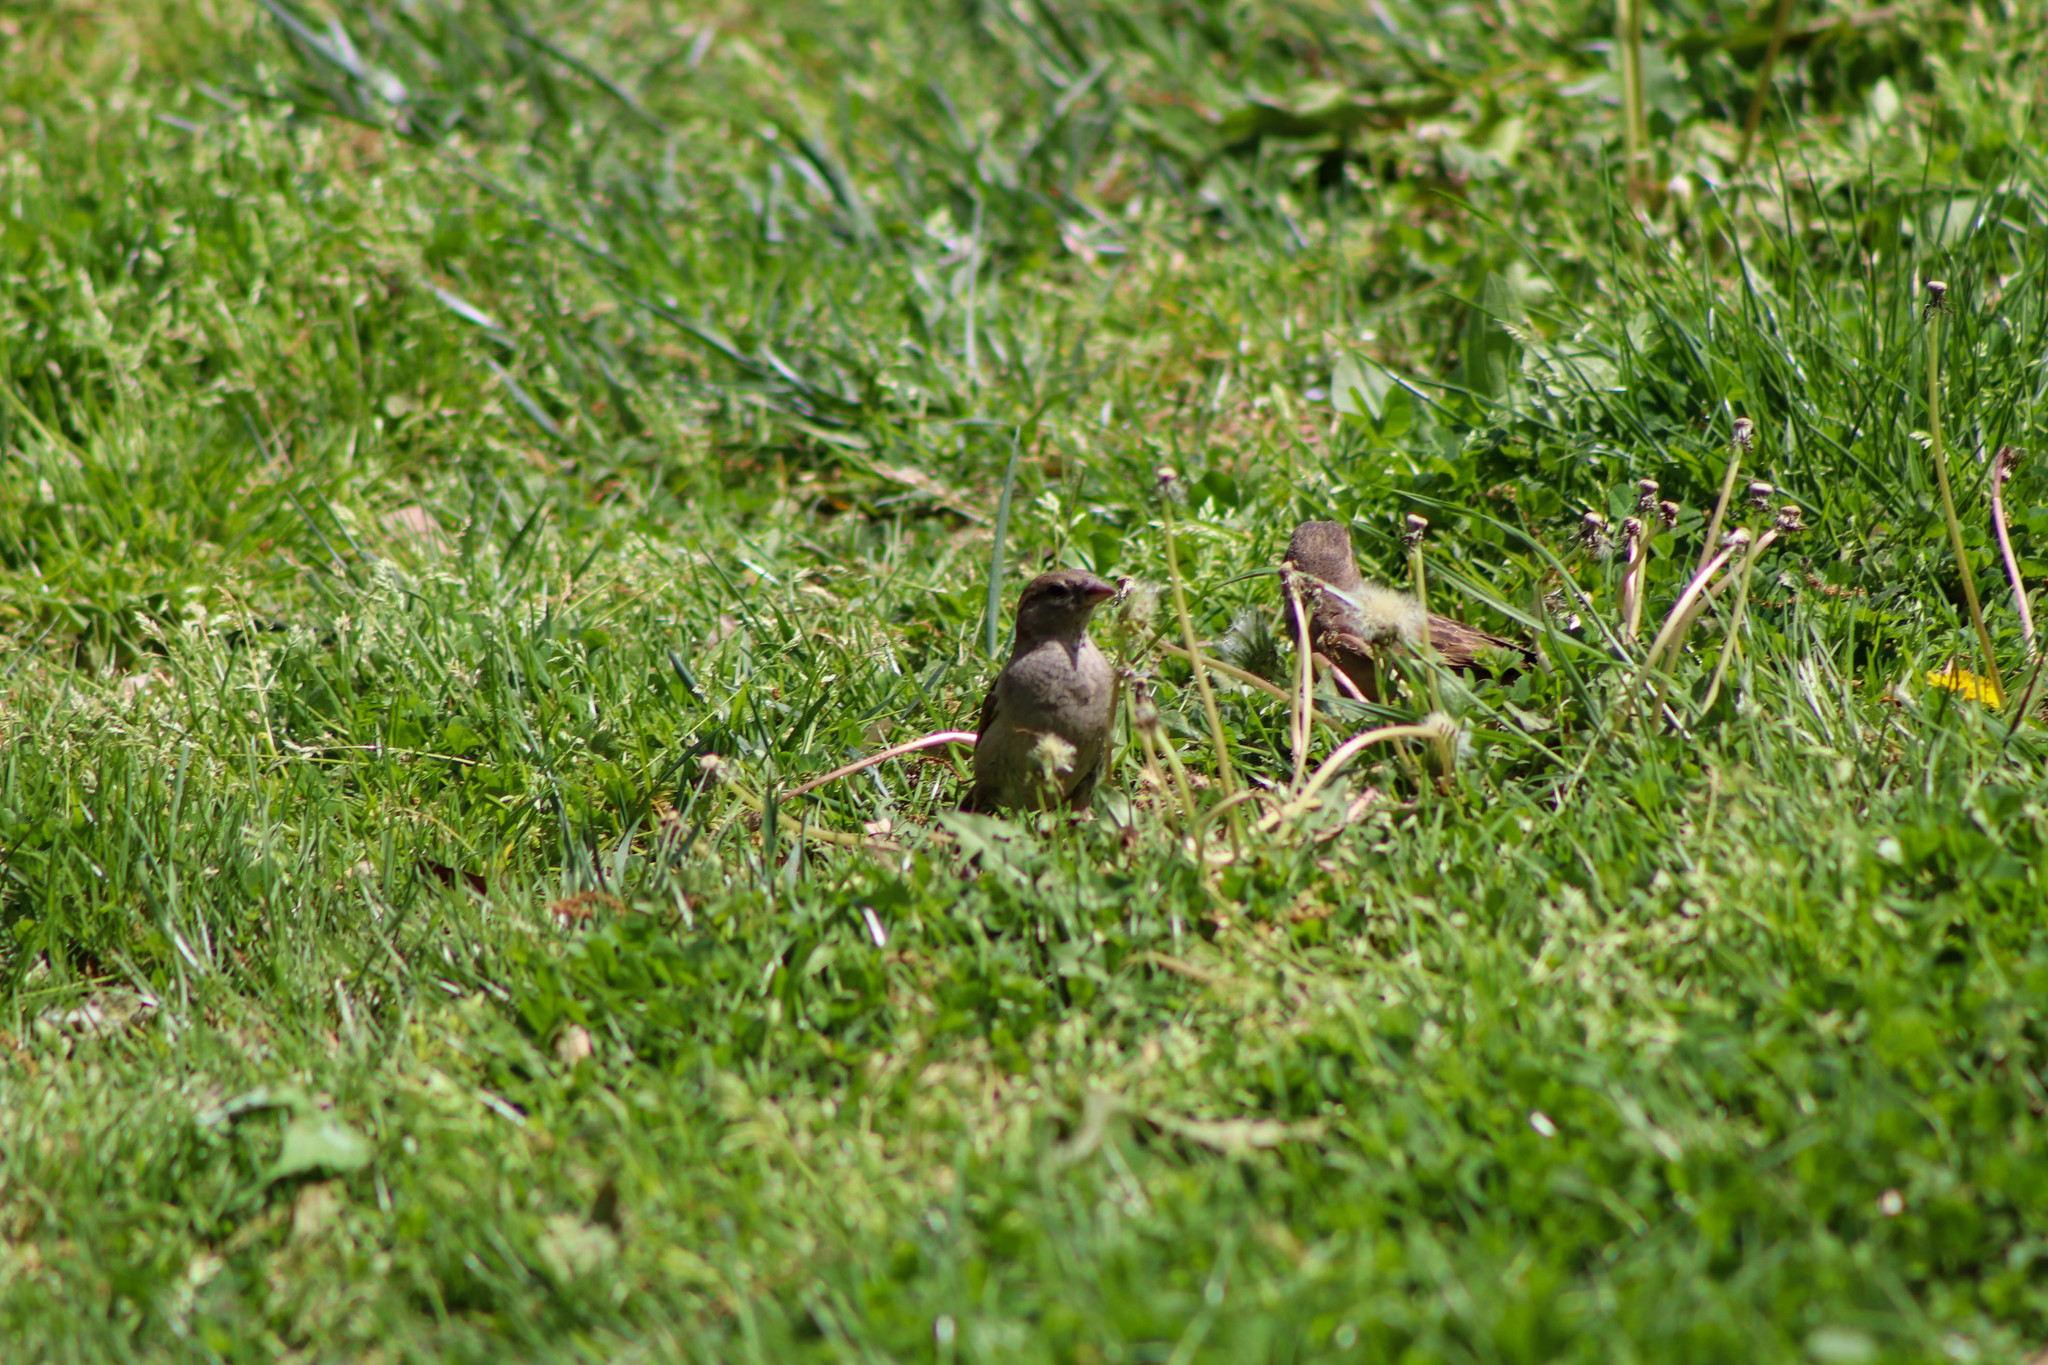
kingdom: Animalia
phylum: Chordata
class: Aves
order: Passeriformes
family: Passeridae
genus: Passer
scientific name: Passer domesticus
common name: House sparrow
